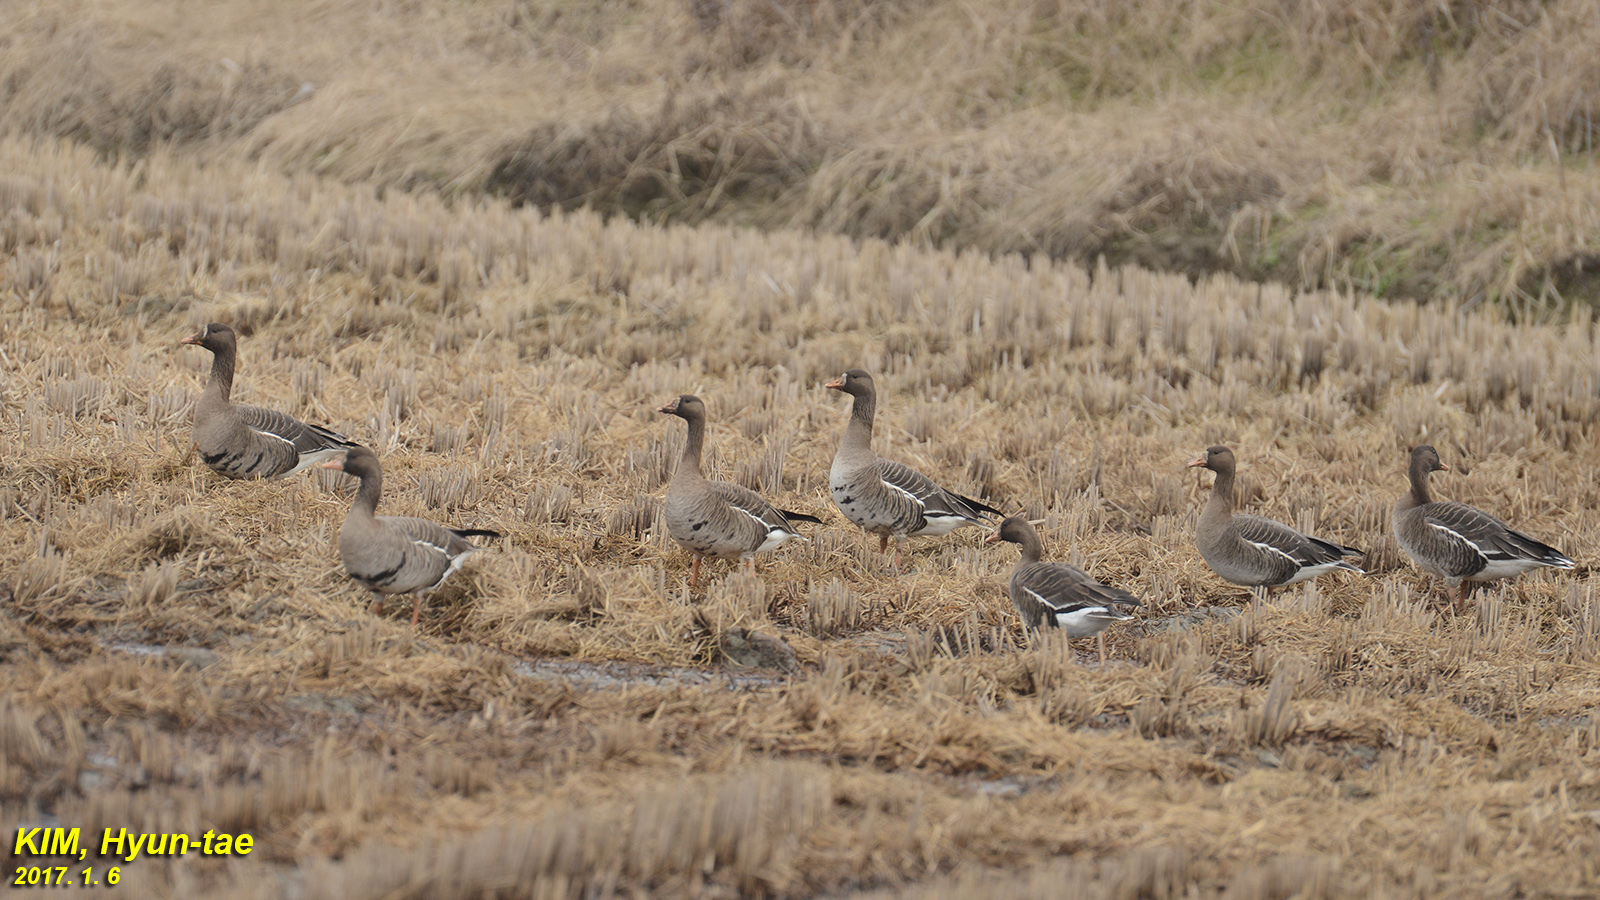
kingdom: Animalia
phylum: Chordata
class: Aves
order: Anseriformes
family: Anatidae
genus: Anser
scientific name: Anser albifrons
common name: Greater white-fronted goose
